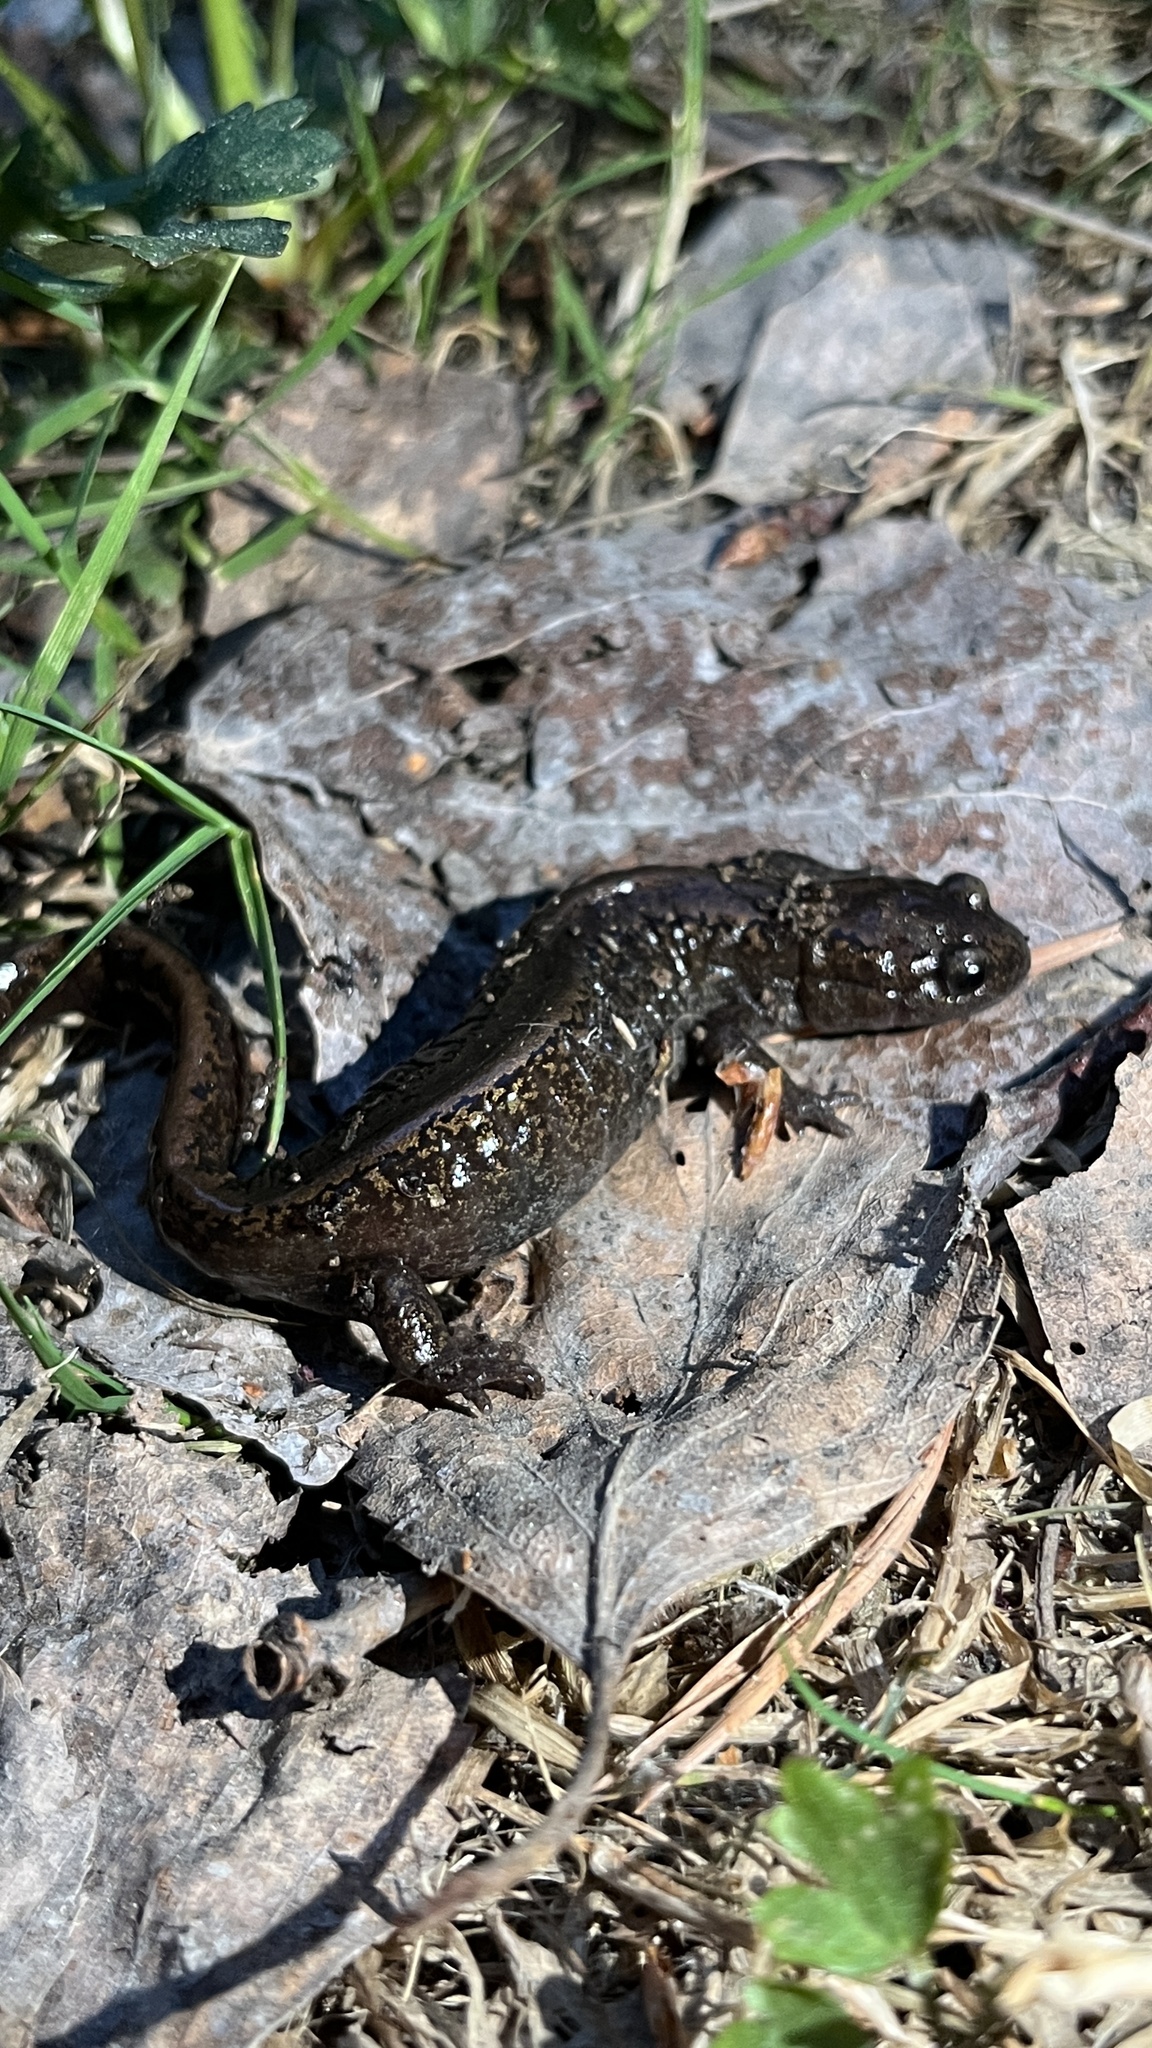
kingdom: Animalia
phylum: Chordata
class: Amphibia
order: Caudata
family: Hynobiidae
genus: Salamandrella
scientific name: Salamandrella keyserlingii
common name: Dybowski's salamander
